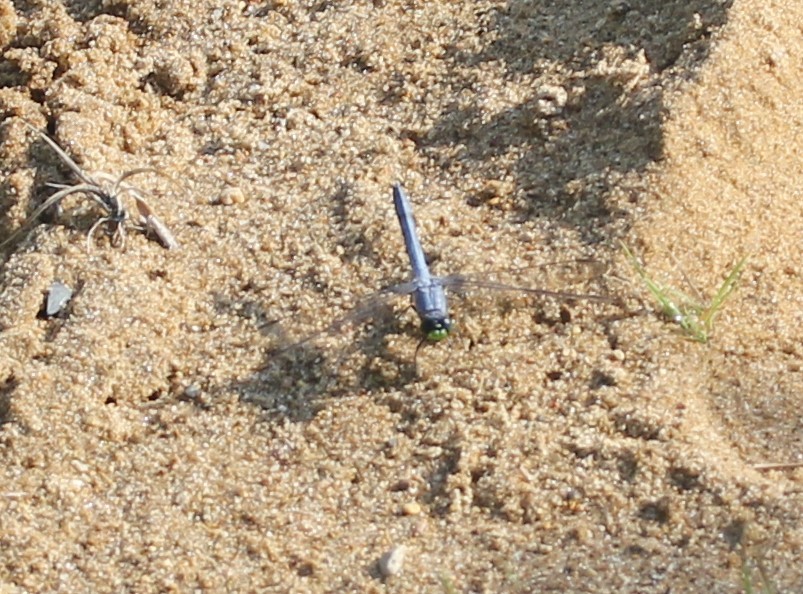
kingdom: Animalia
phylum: Arthropoda
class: Insecta
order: Odonata
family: Libellulidae
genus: Erythemis
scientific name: Erythemis simplicicollis
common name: Eastern pondhawk
